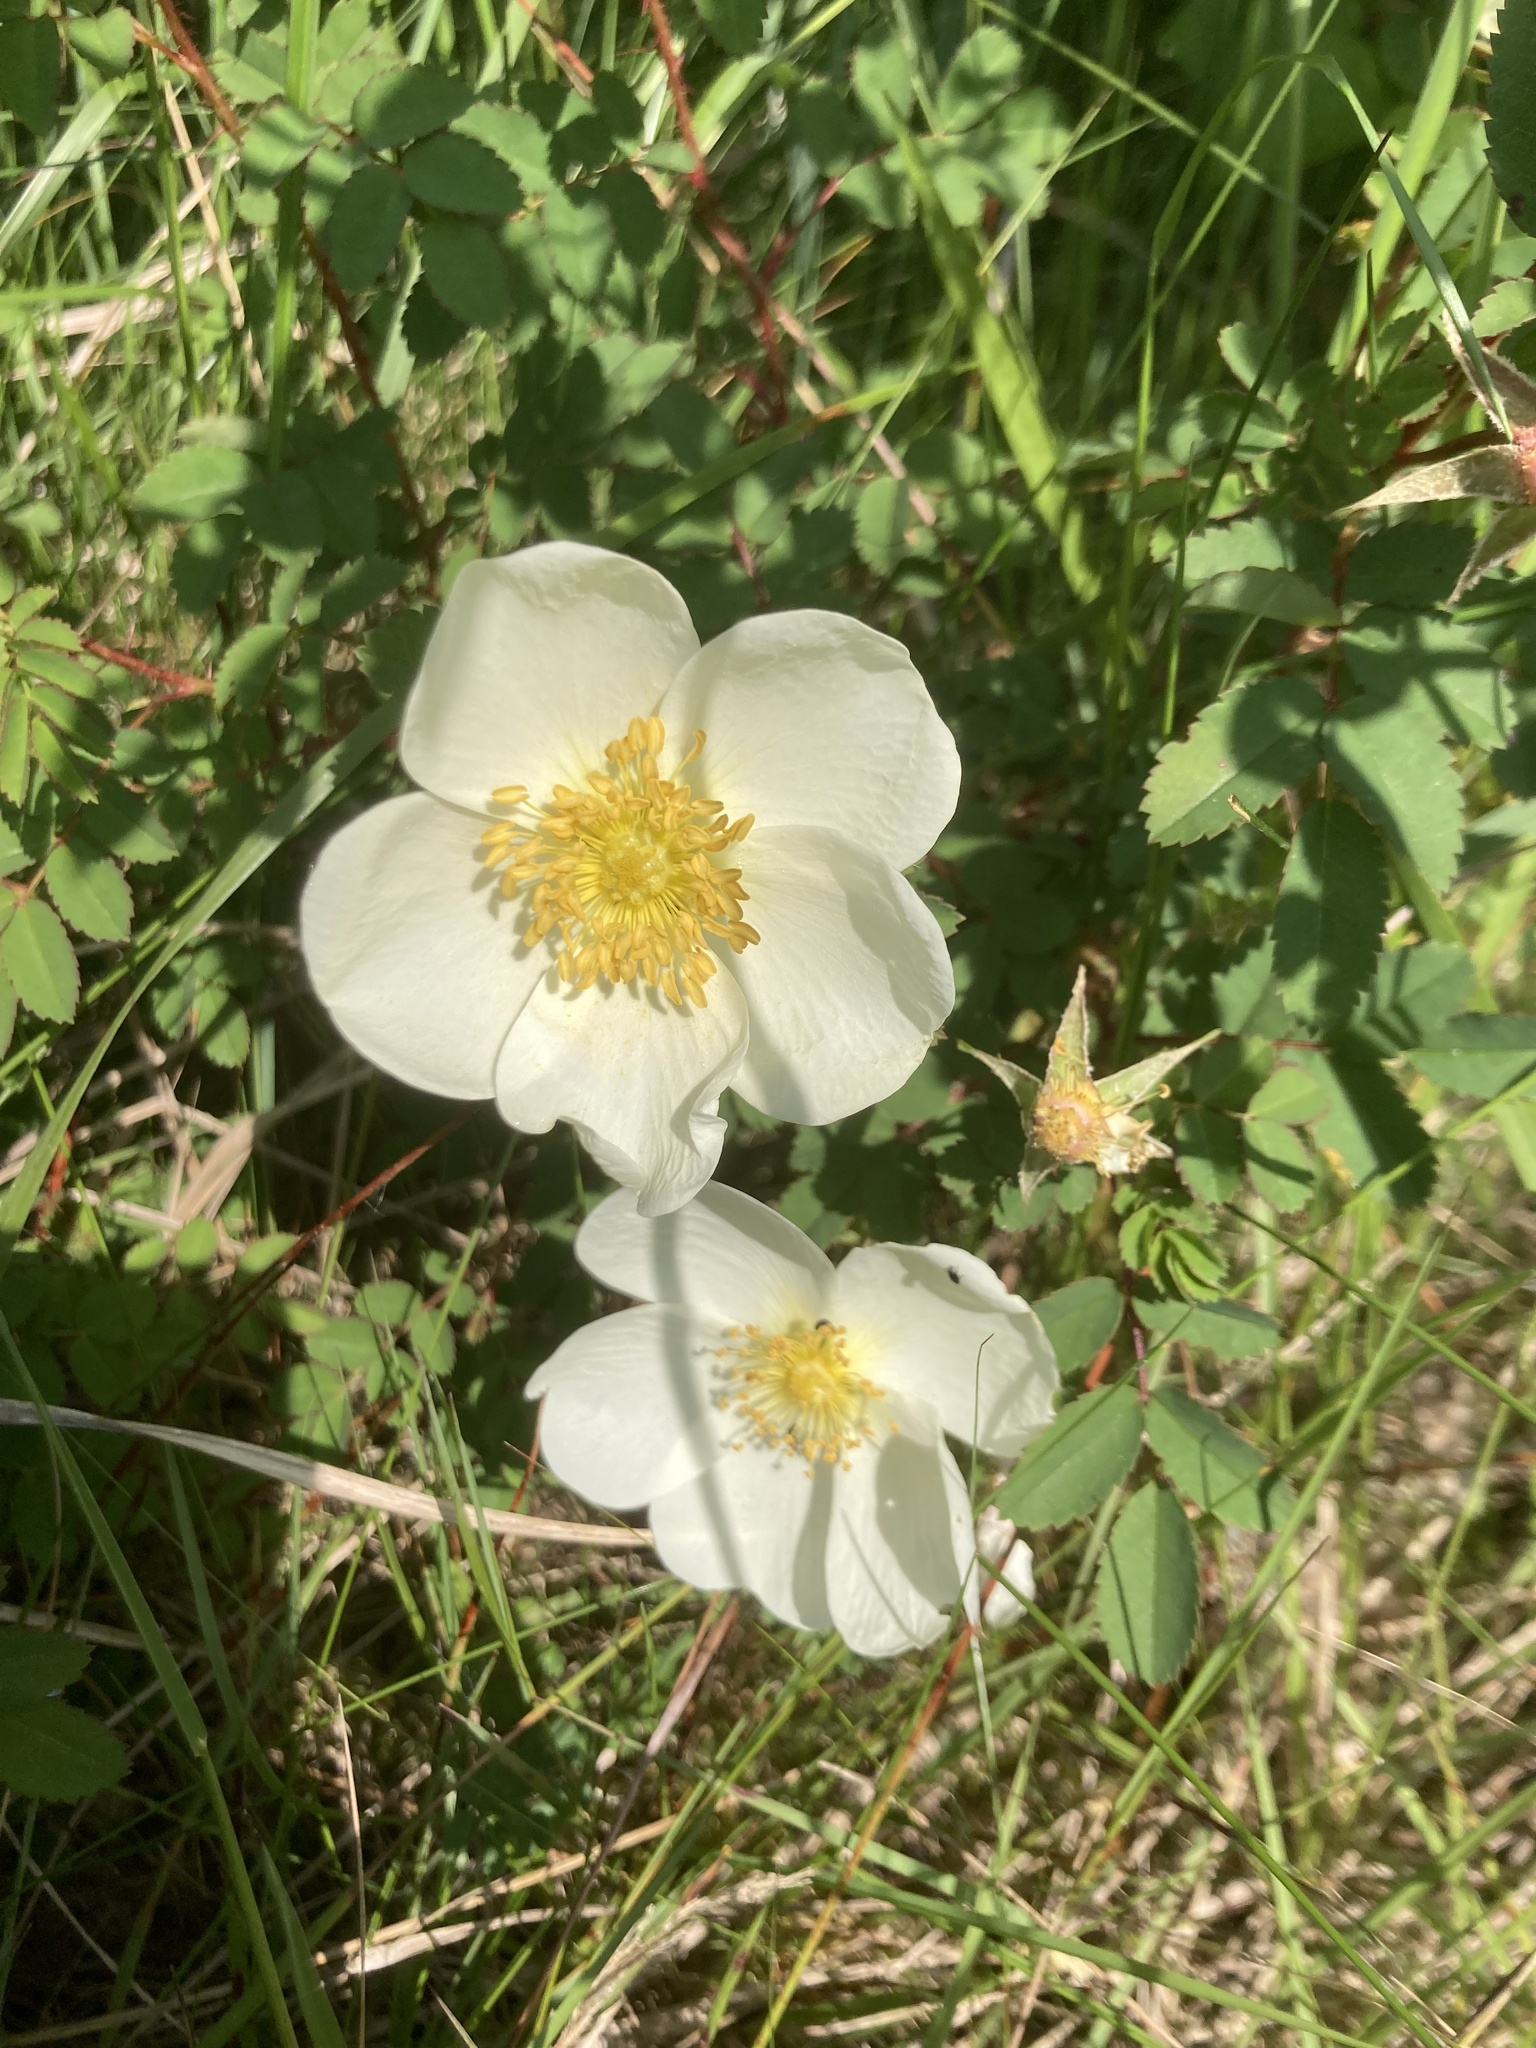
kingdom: Plantae
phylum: Tracheophyta
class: Magnoliopsida
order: Rosales
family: Rosaceae
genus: Rosa
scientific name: Rosa spinosissima
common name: Burnet rose
